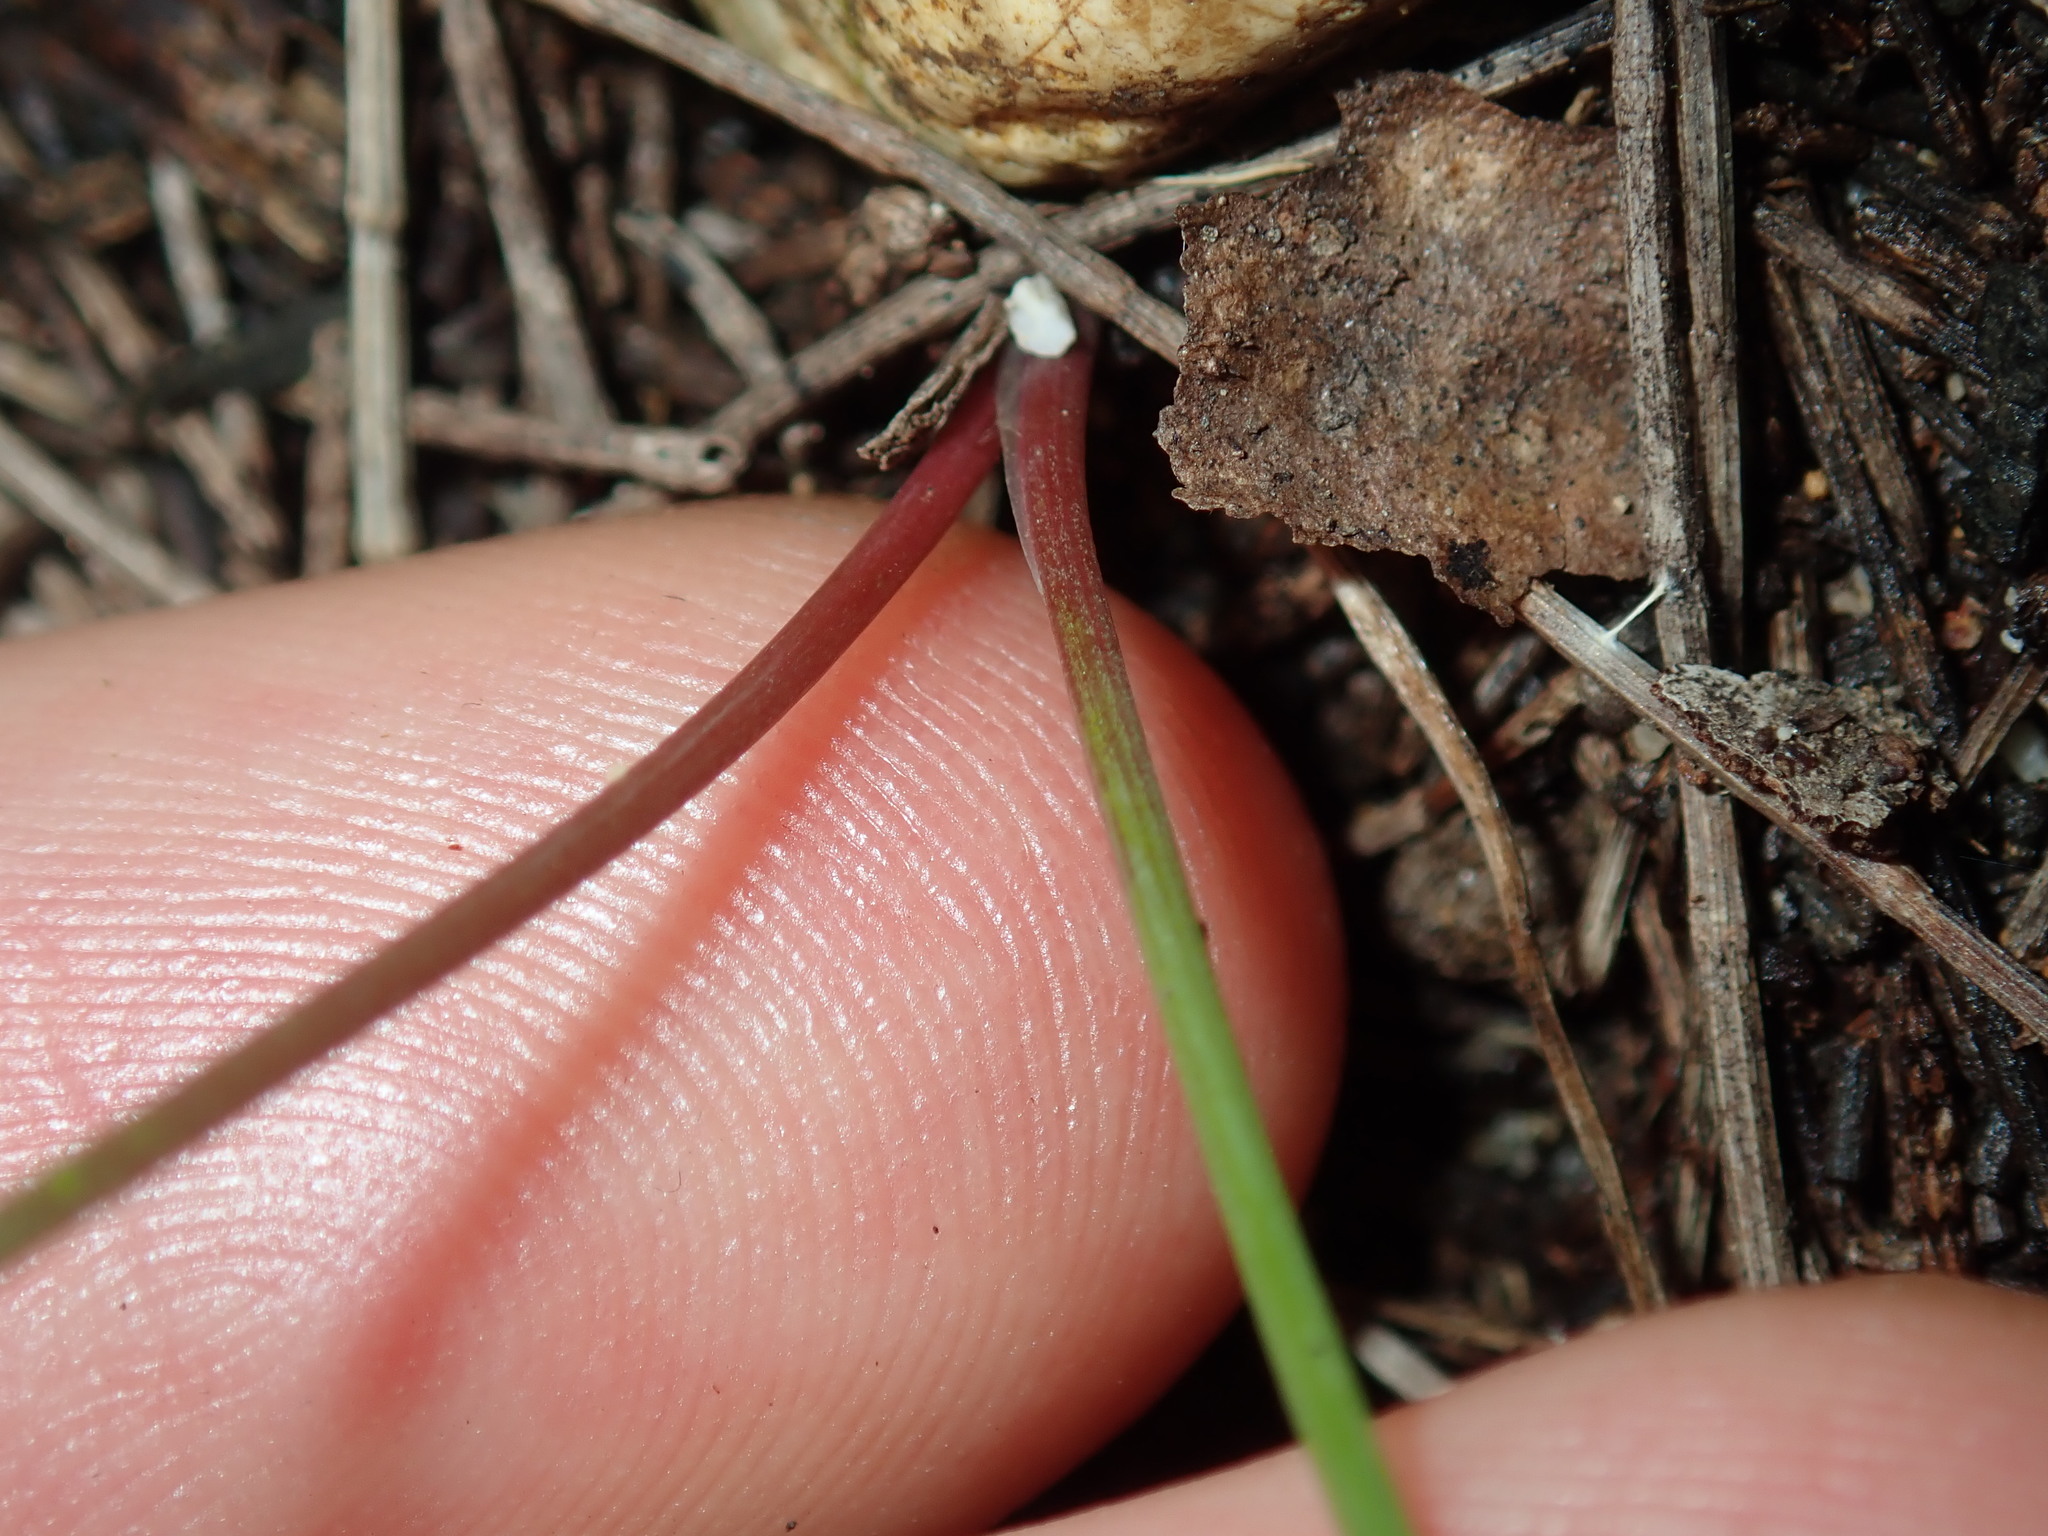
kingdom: Plantae
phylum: Tracheophyta
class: Liliopsida
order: Asparagales
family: Asparagaceae
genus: Thysanotus
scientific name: Thysanotus tuberosus
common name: Common fringed-lily
